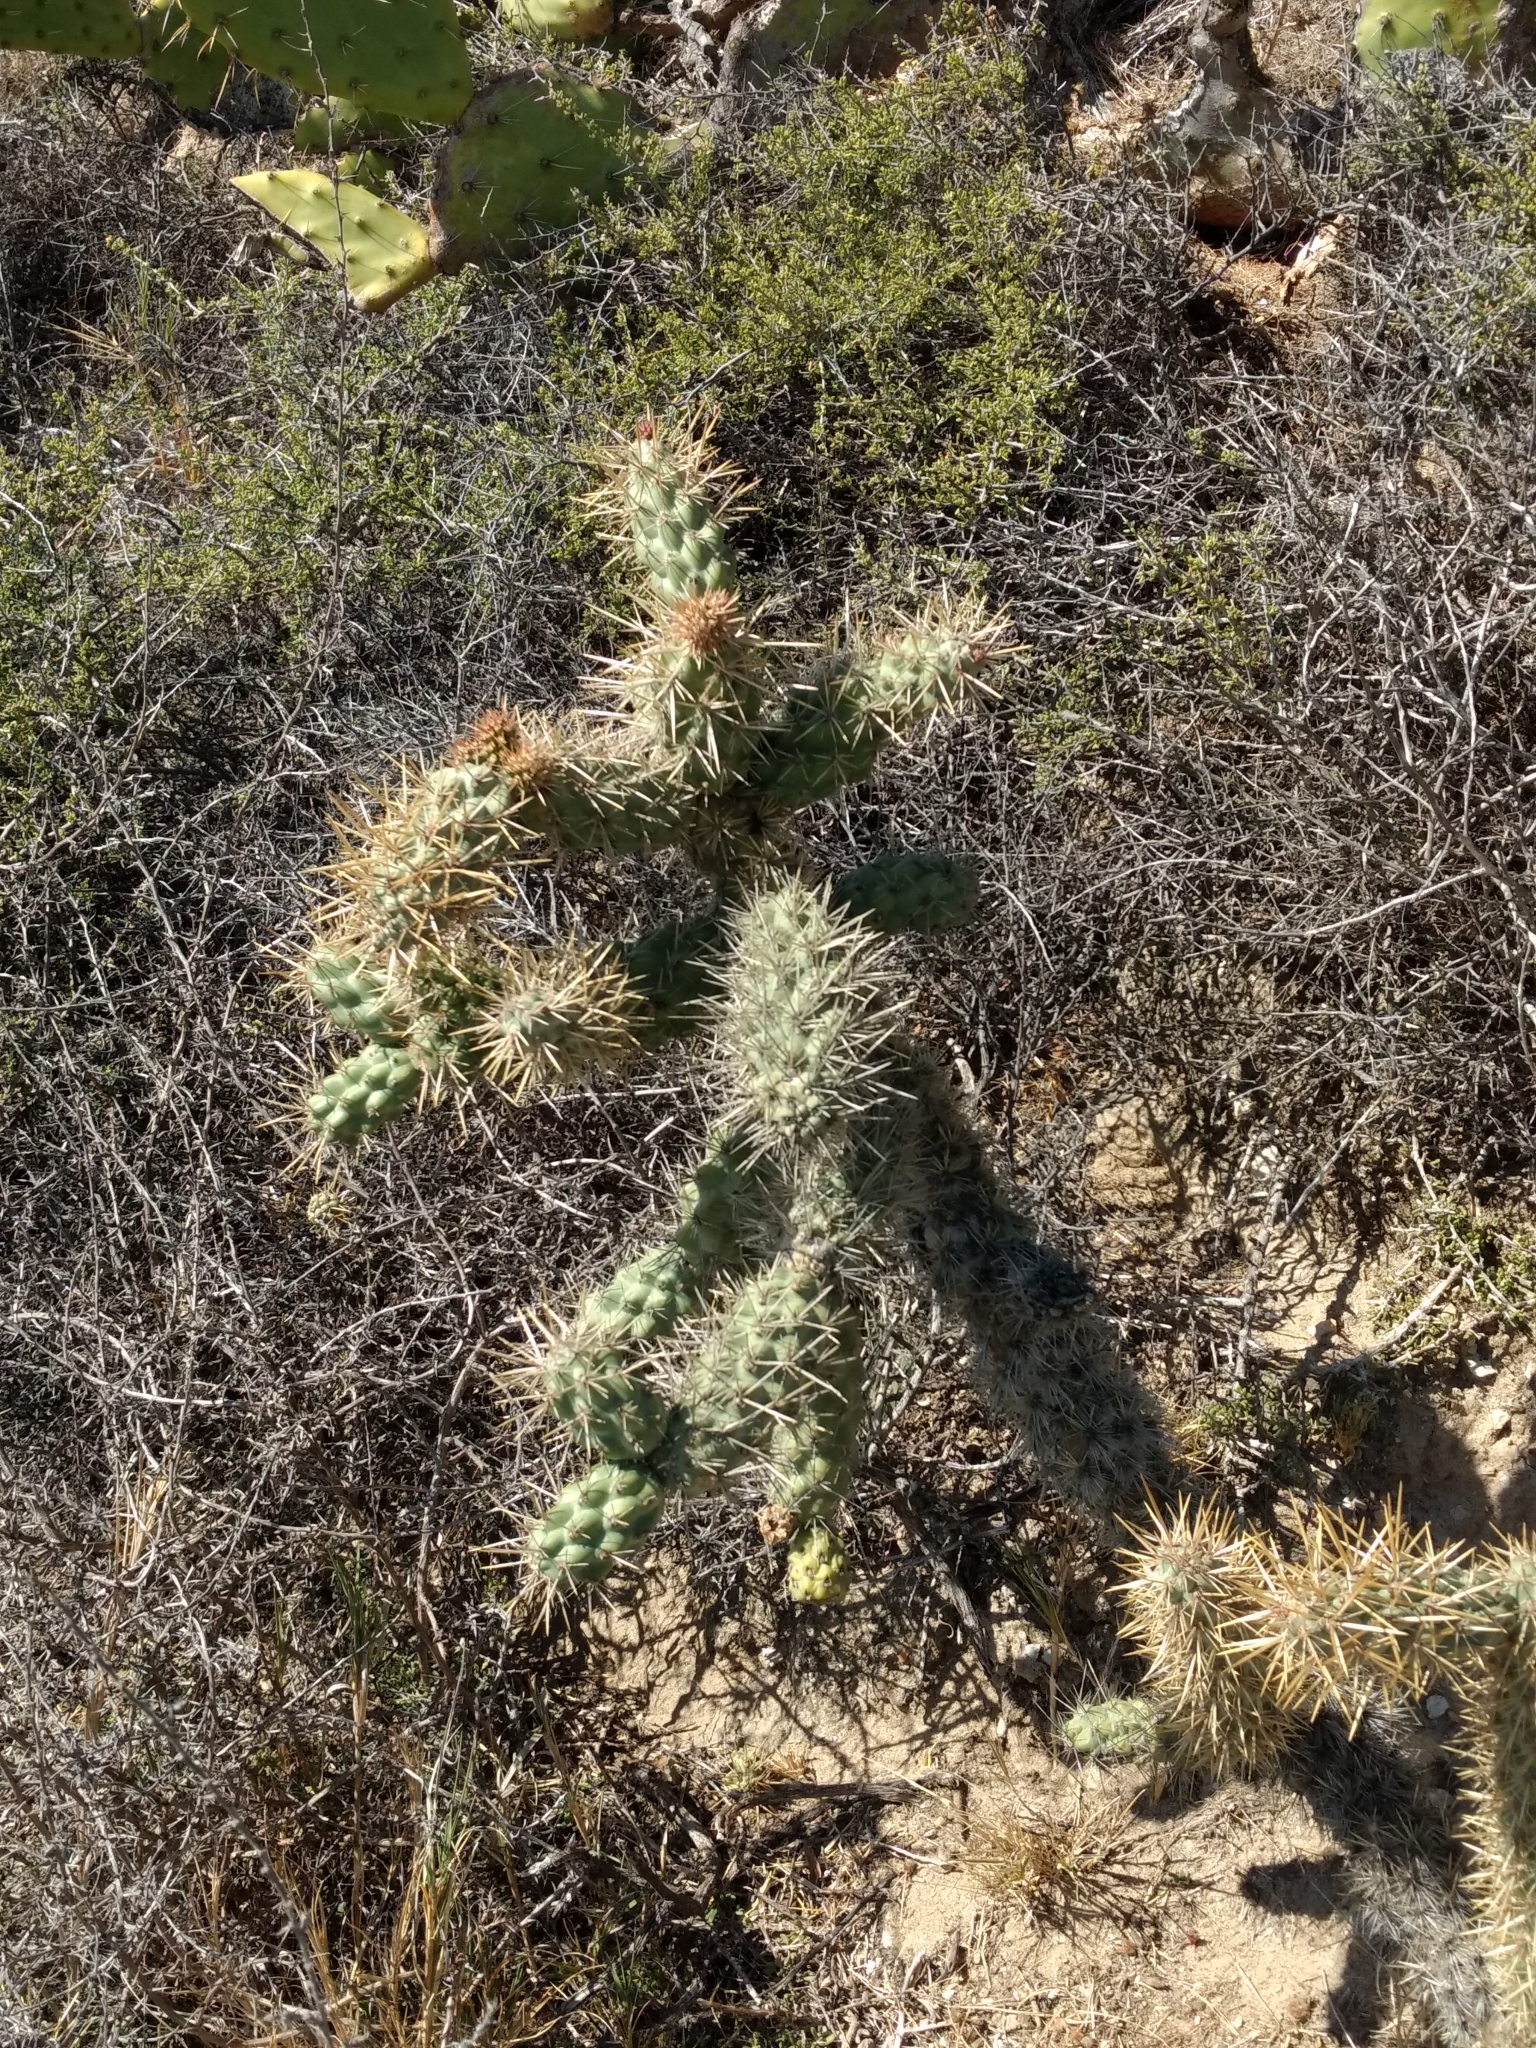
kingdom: Plantae
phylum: Tracheophyta
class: Magnoliopsida
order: Caryophyllales
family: Cactaceae
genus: Cylindropuntia
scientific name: Cylindropuntia prolifera
